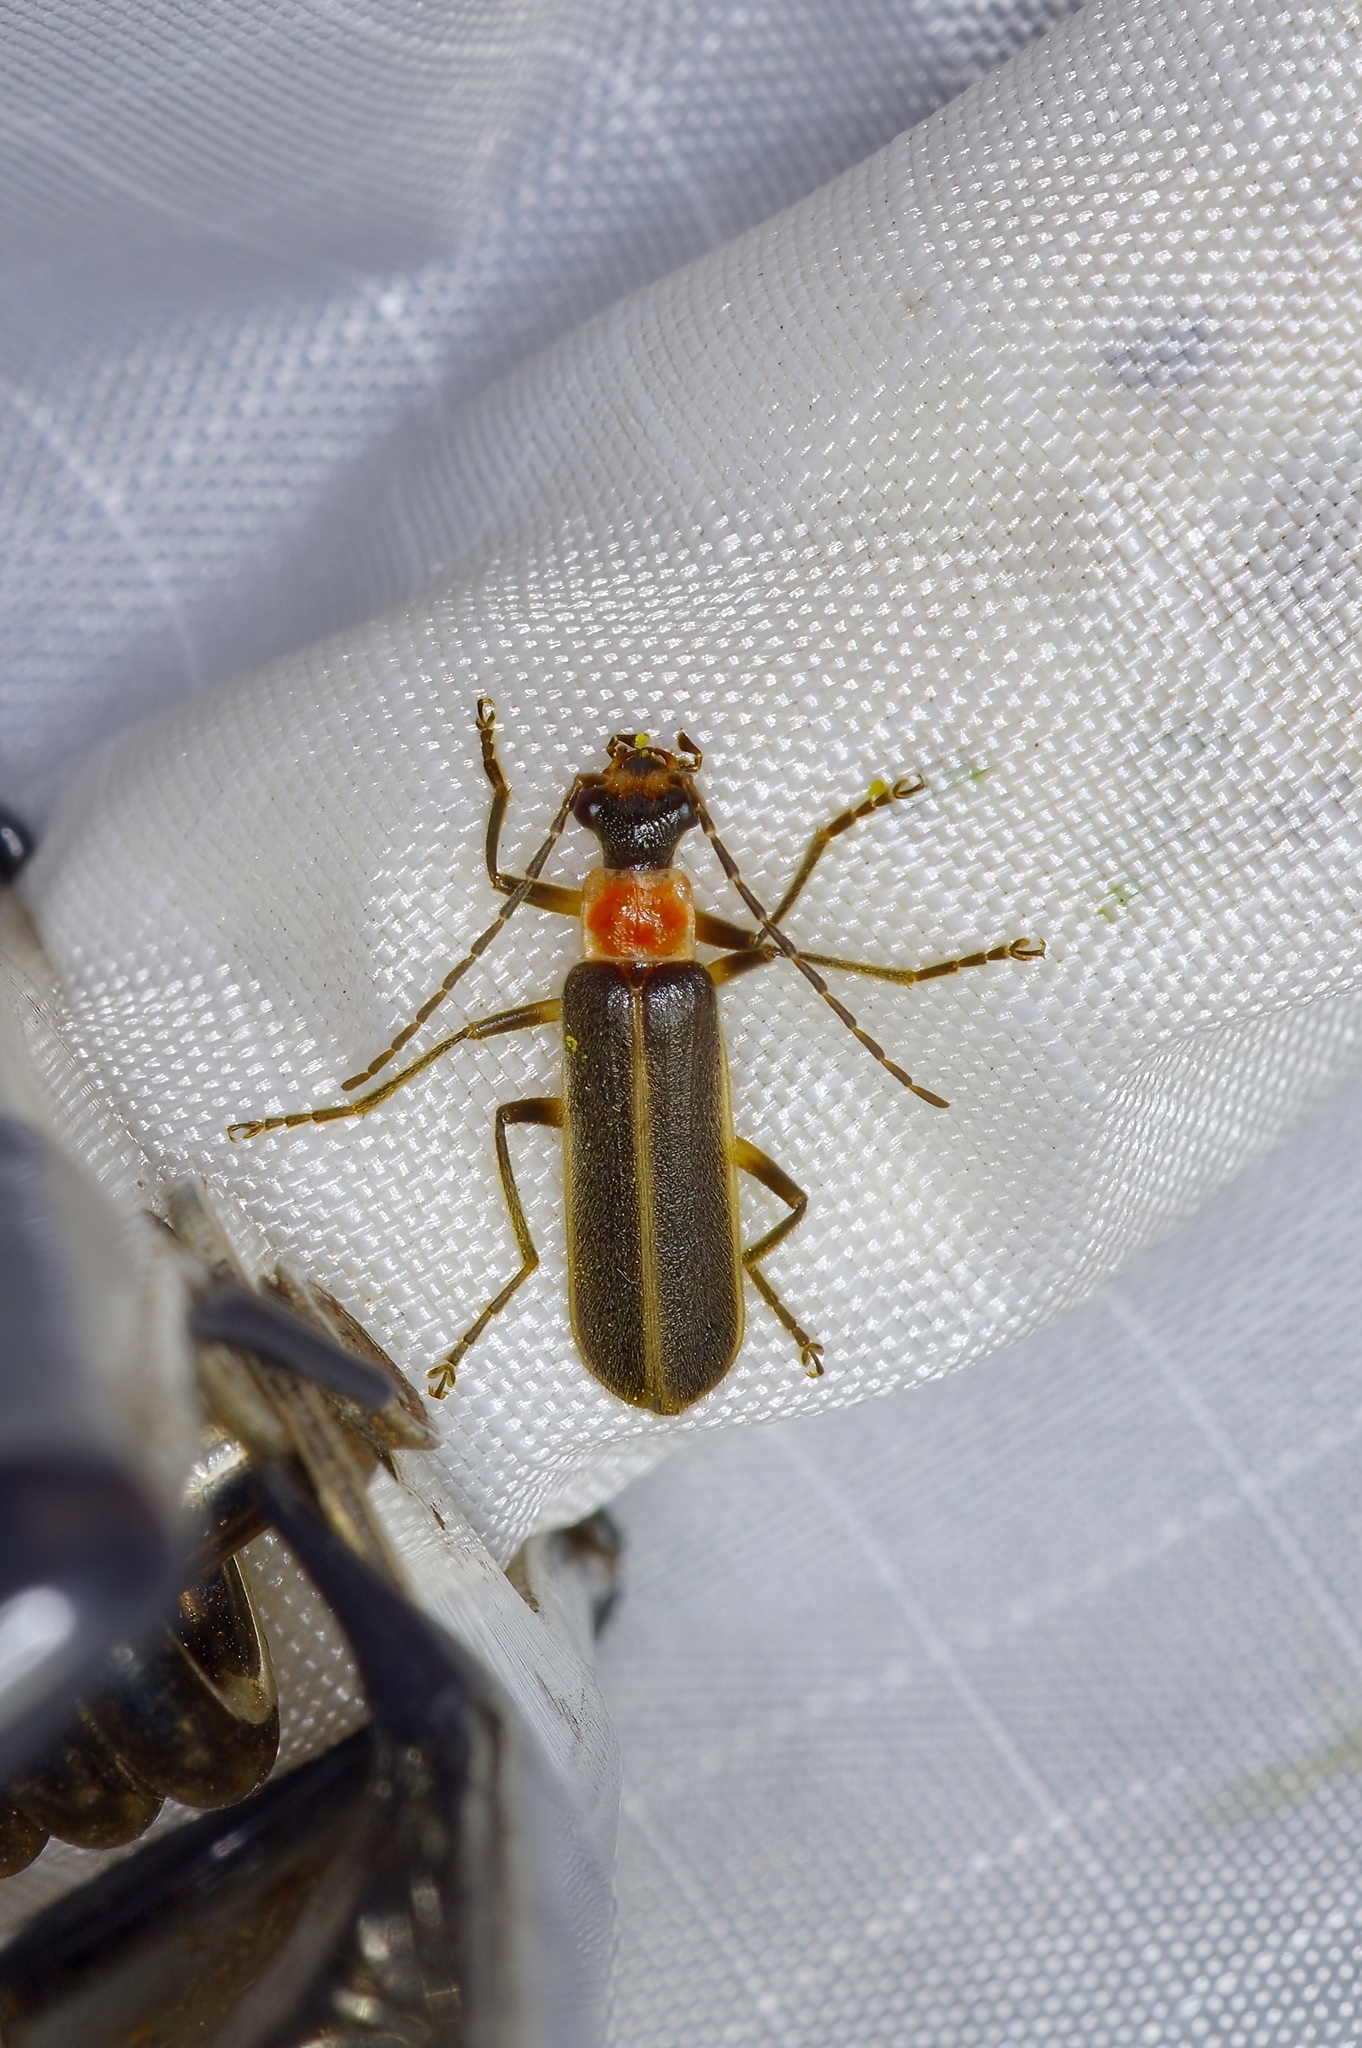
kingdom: Animalia
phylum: Arthropoda
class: Insecta
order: Coleoptera
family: Cantharidae
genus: Podabrus
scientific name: Podabrus quadratus
